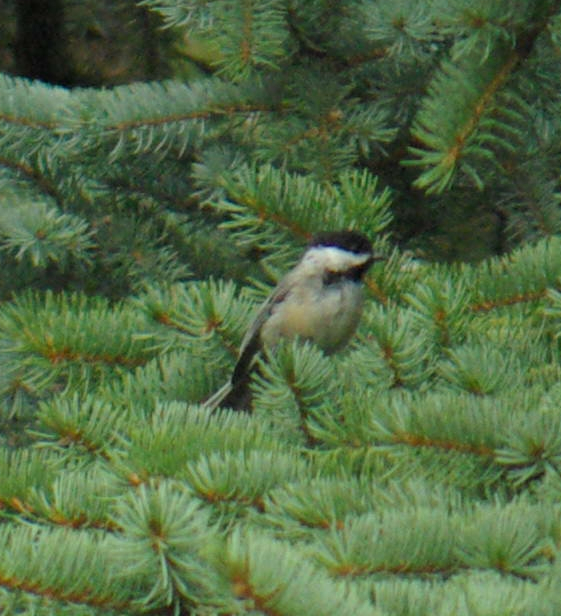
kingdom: Animalia
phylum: Chordata
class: Aves
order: Passeriformes
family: Paridae
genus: Poecile
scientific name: Poecile atricapillus
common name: Black-capped chickadee
